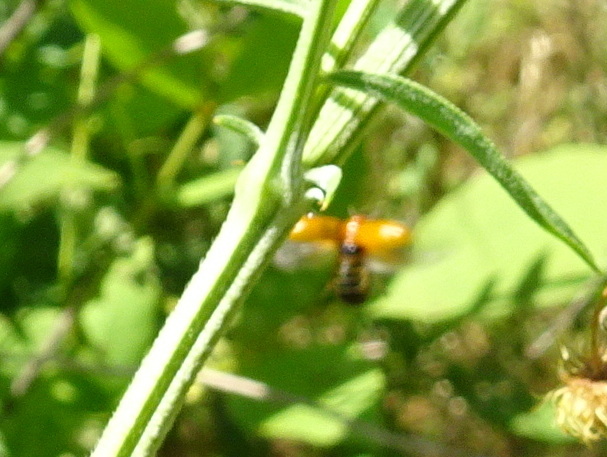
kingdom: Animalia
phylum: Arthropoda
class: Insecta
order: Coleoptera
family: Chrysomelidae
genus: Anomoea
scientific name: Anomoea flavokansiensis
